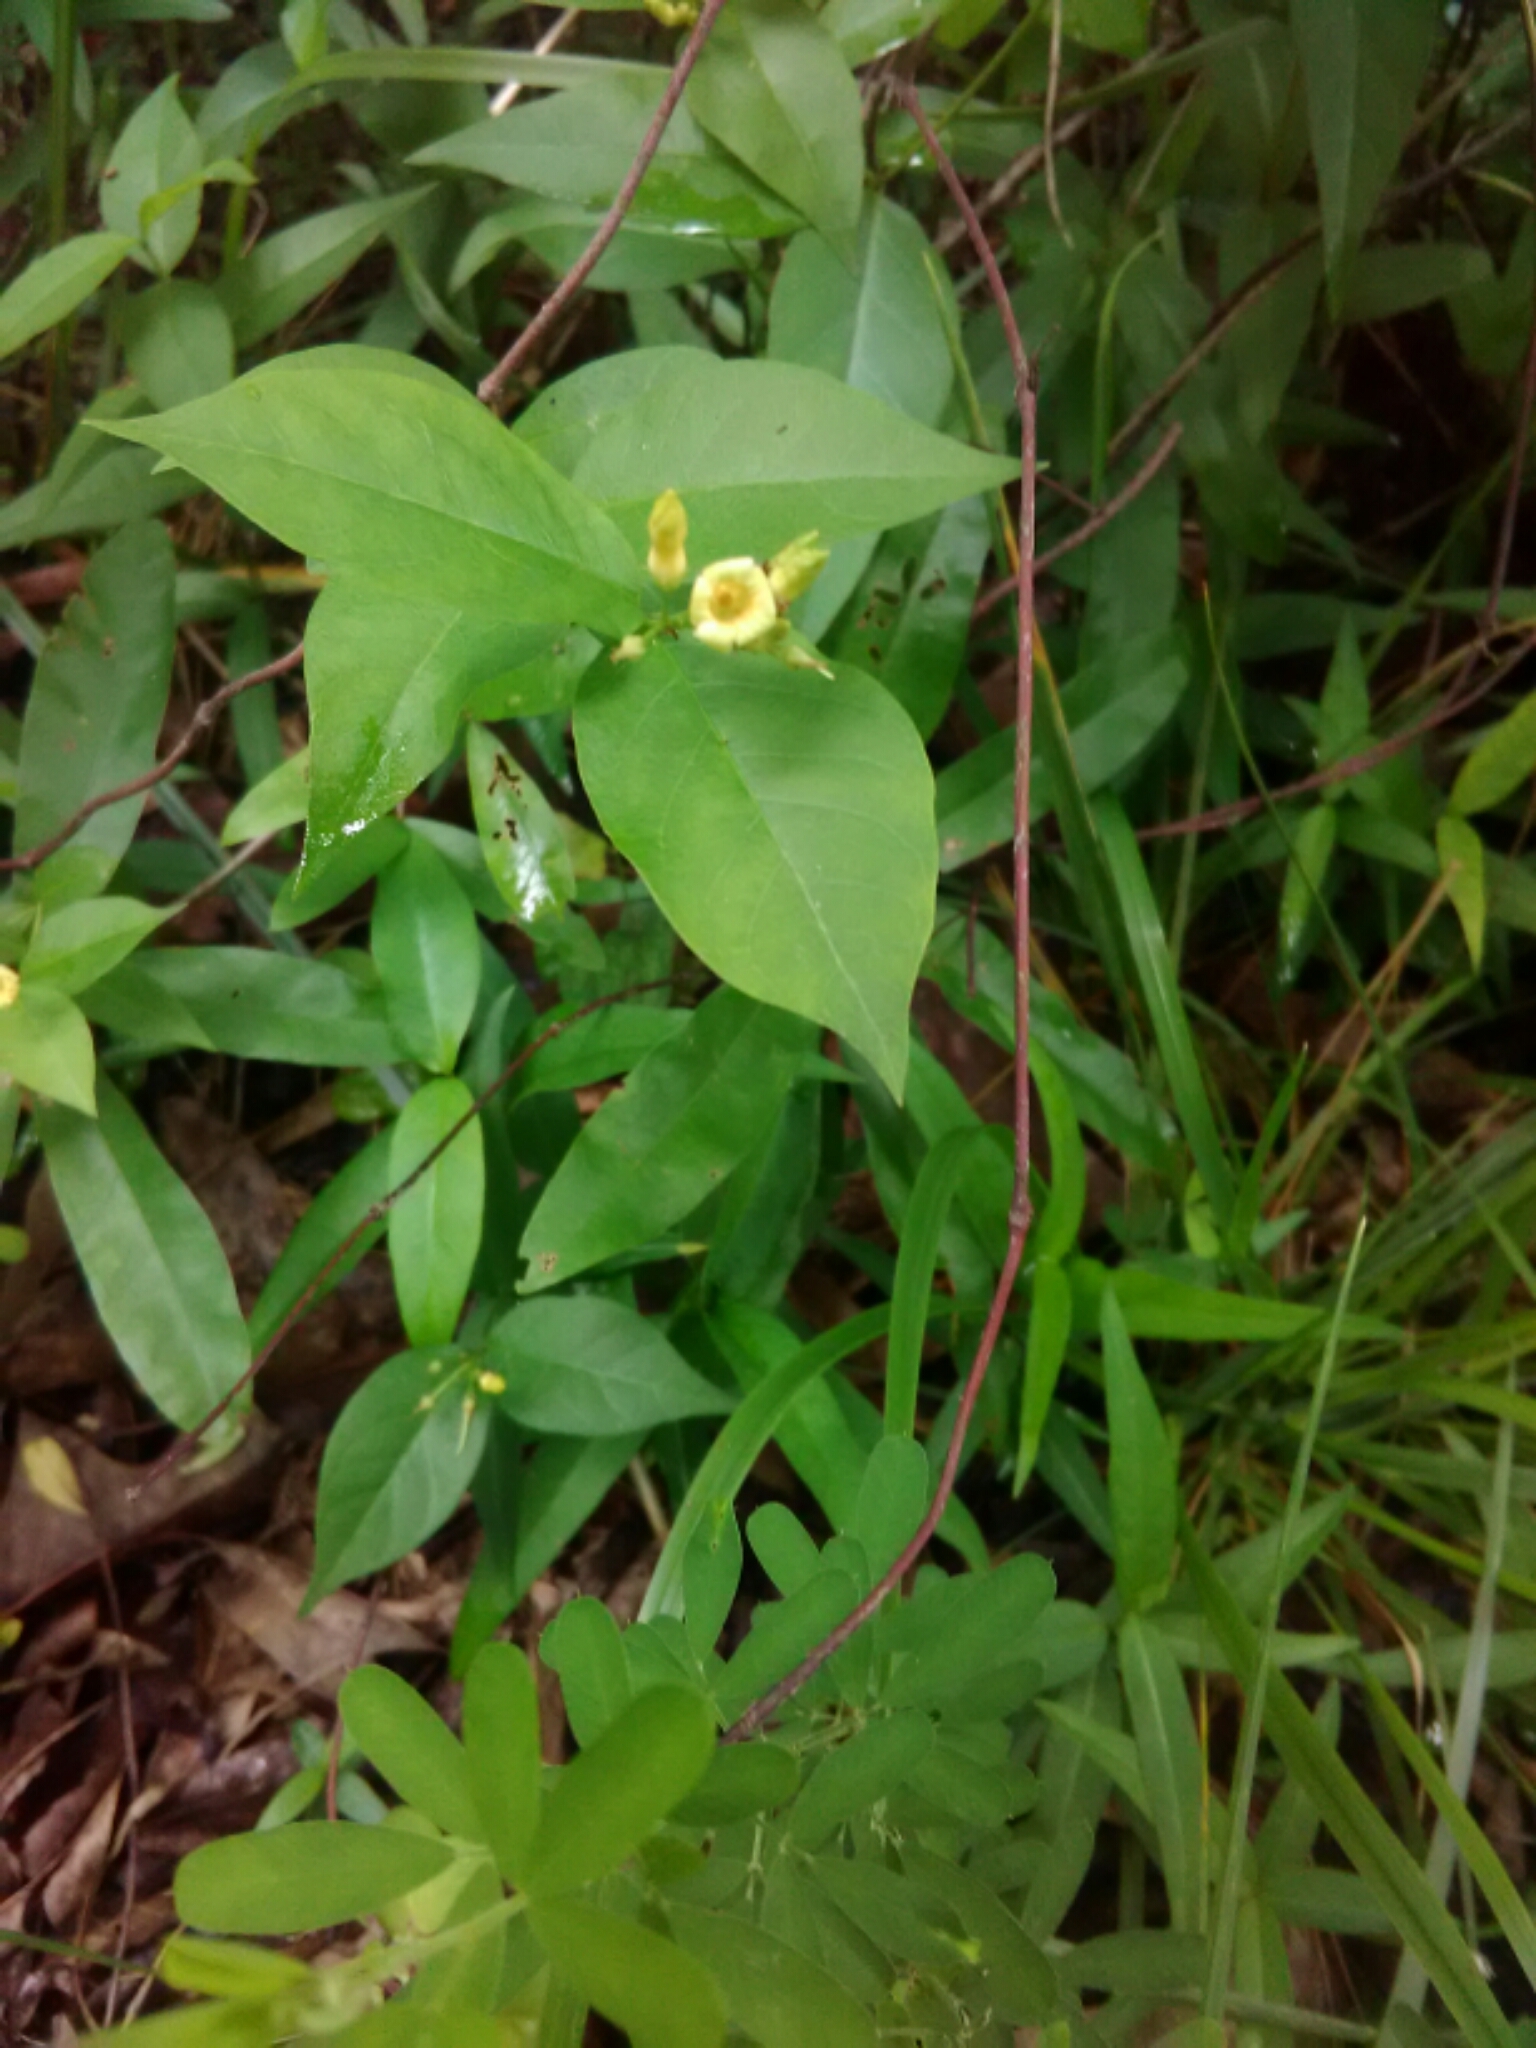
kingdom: Plantae
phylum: Tracheophyta
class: Magnoliopsida
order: Gentianales
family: Apocynaceae
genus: Thyrsanthella
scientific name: Thyrsanthella difformis
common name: Climbing dogbane
